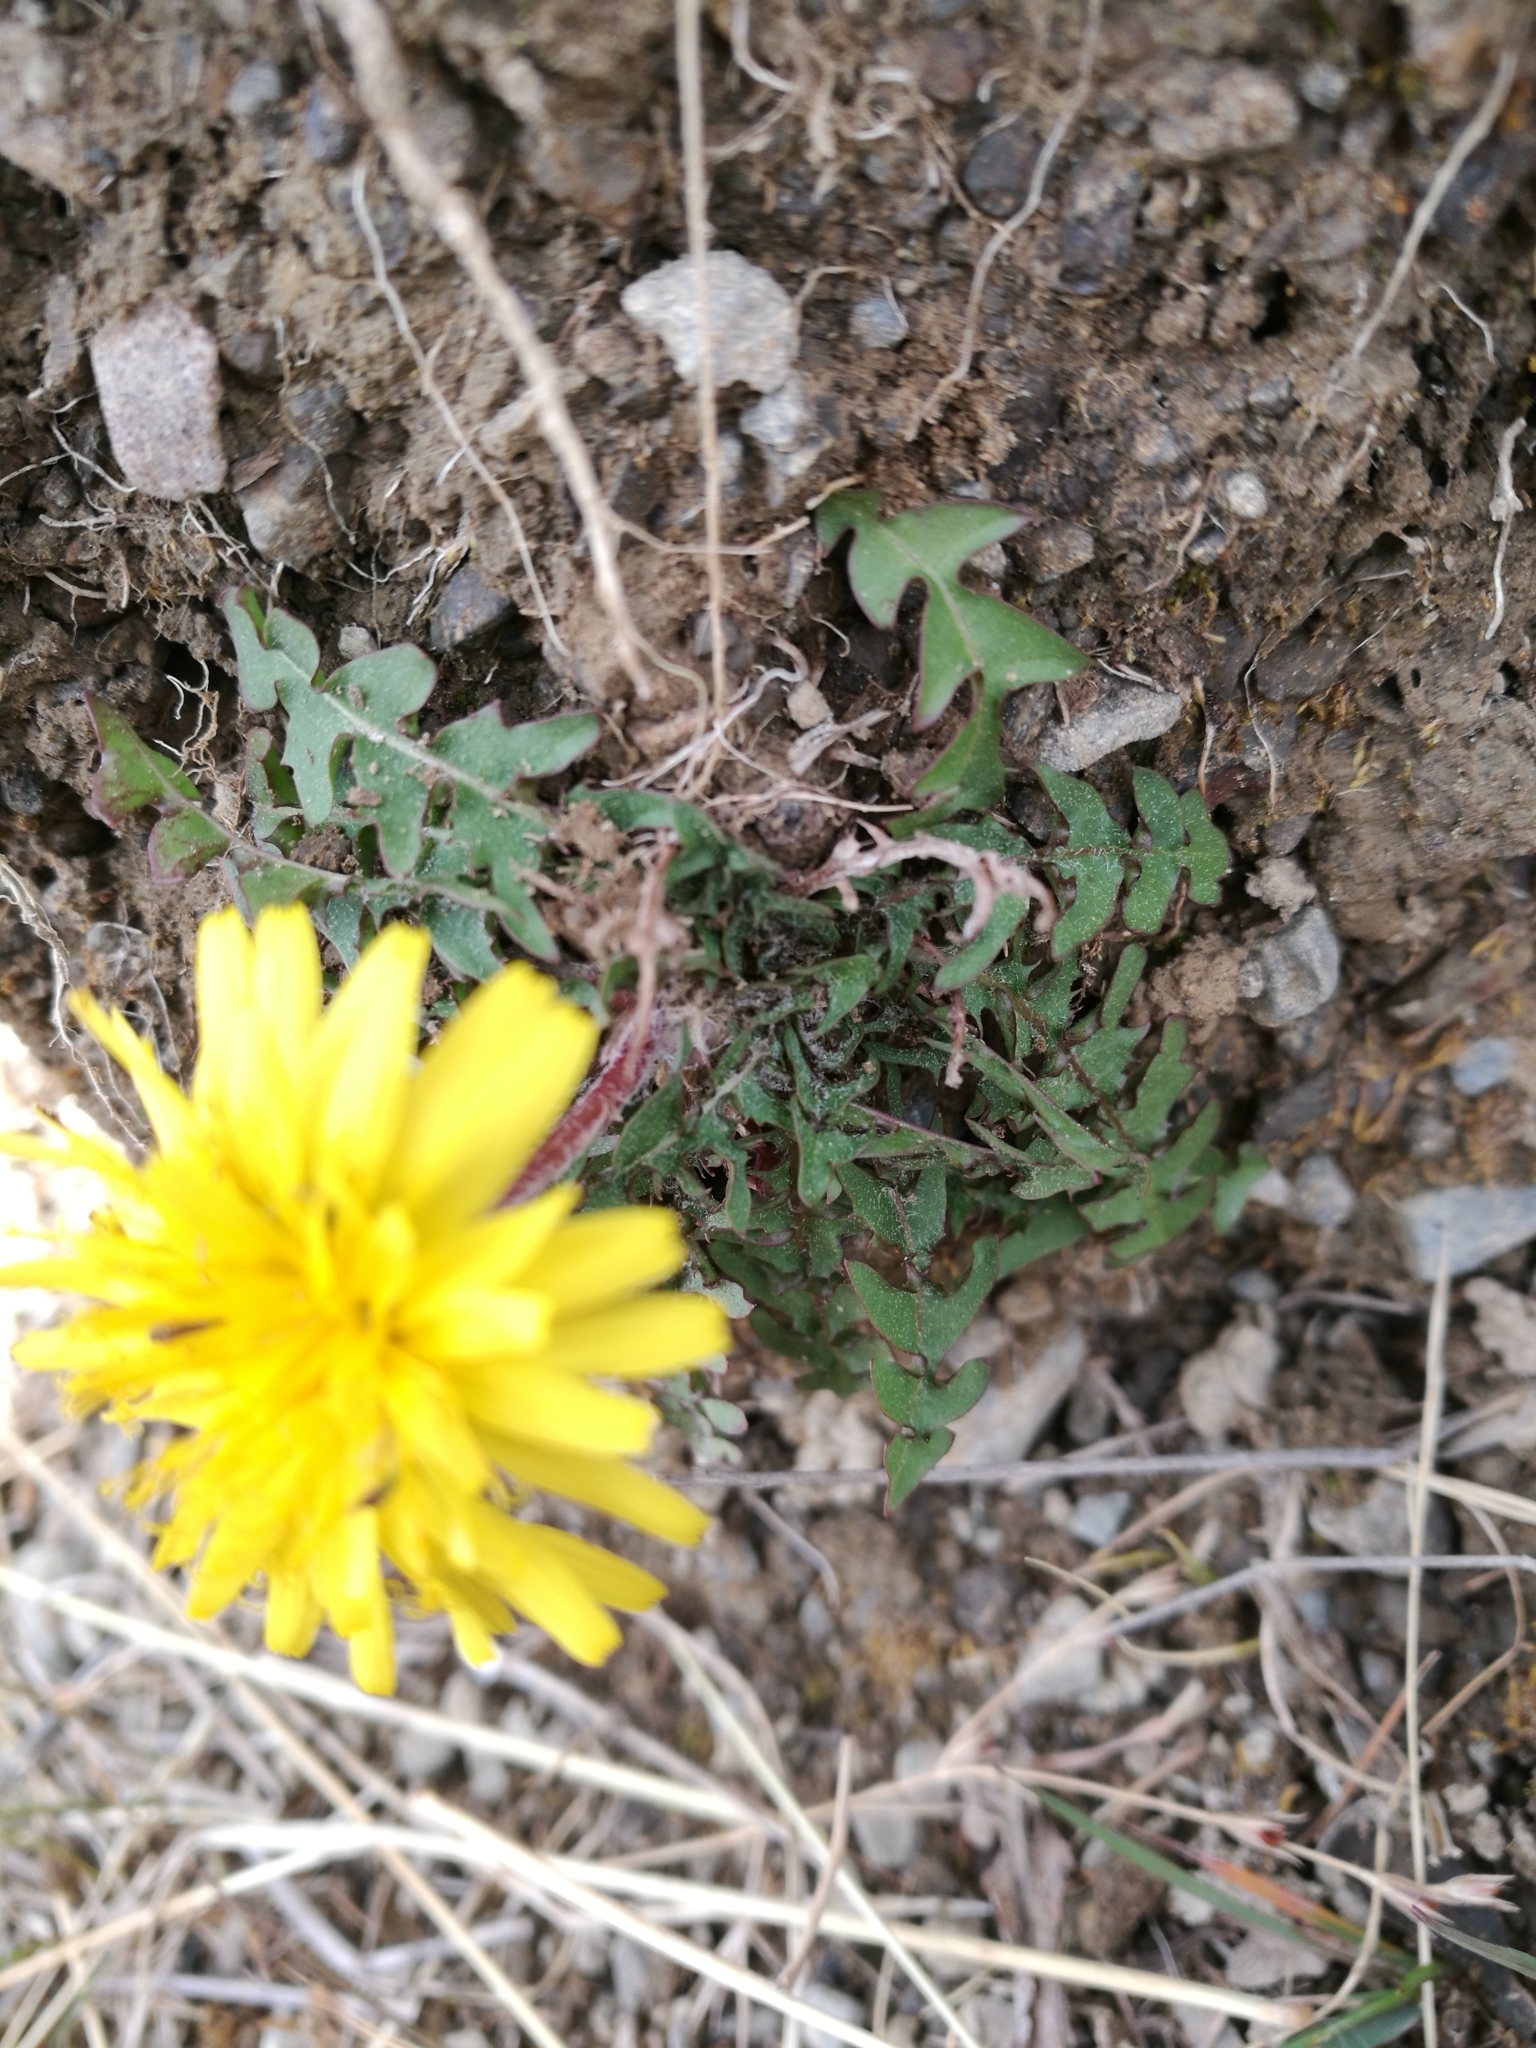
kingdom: Plantae
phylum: Tracheophyta
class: Magnoliopsida
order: Asterales
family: Asteraceae
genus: Taraxacum
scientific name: Taraxacum officinale
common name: Common dandelion
